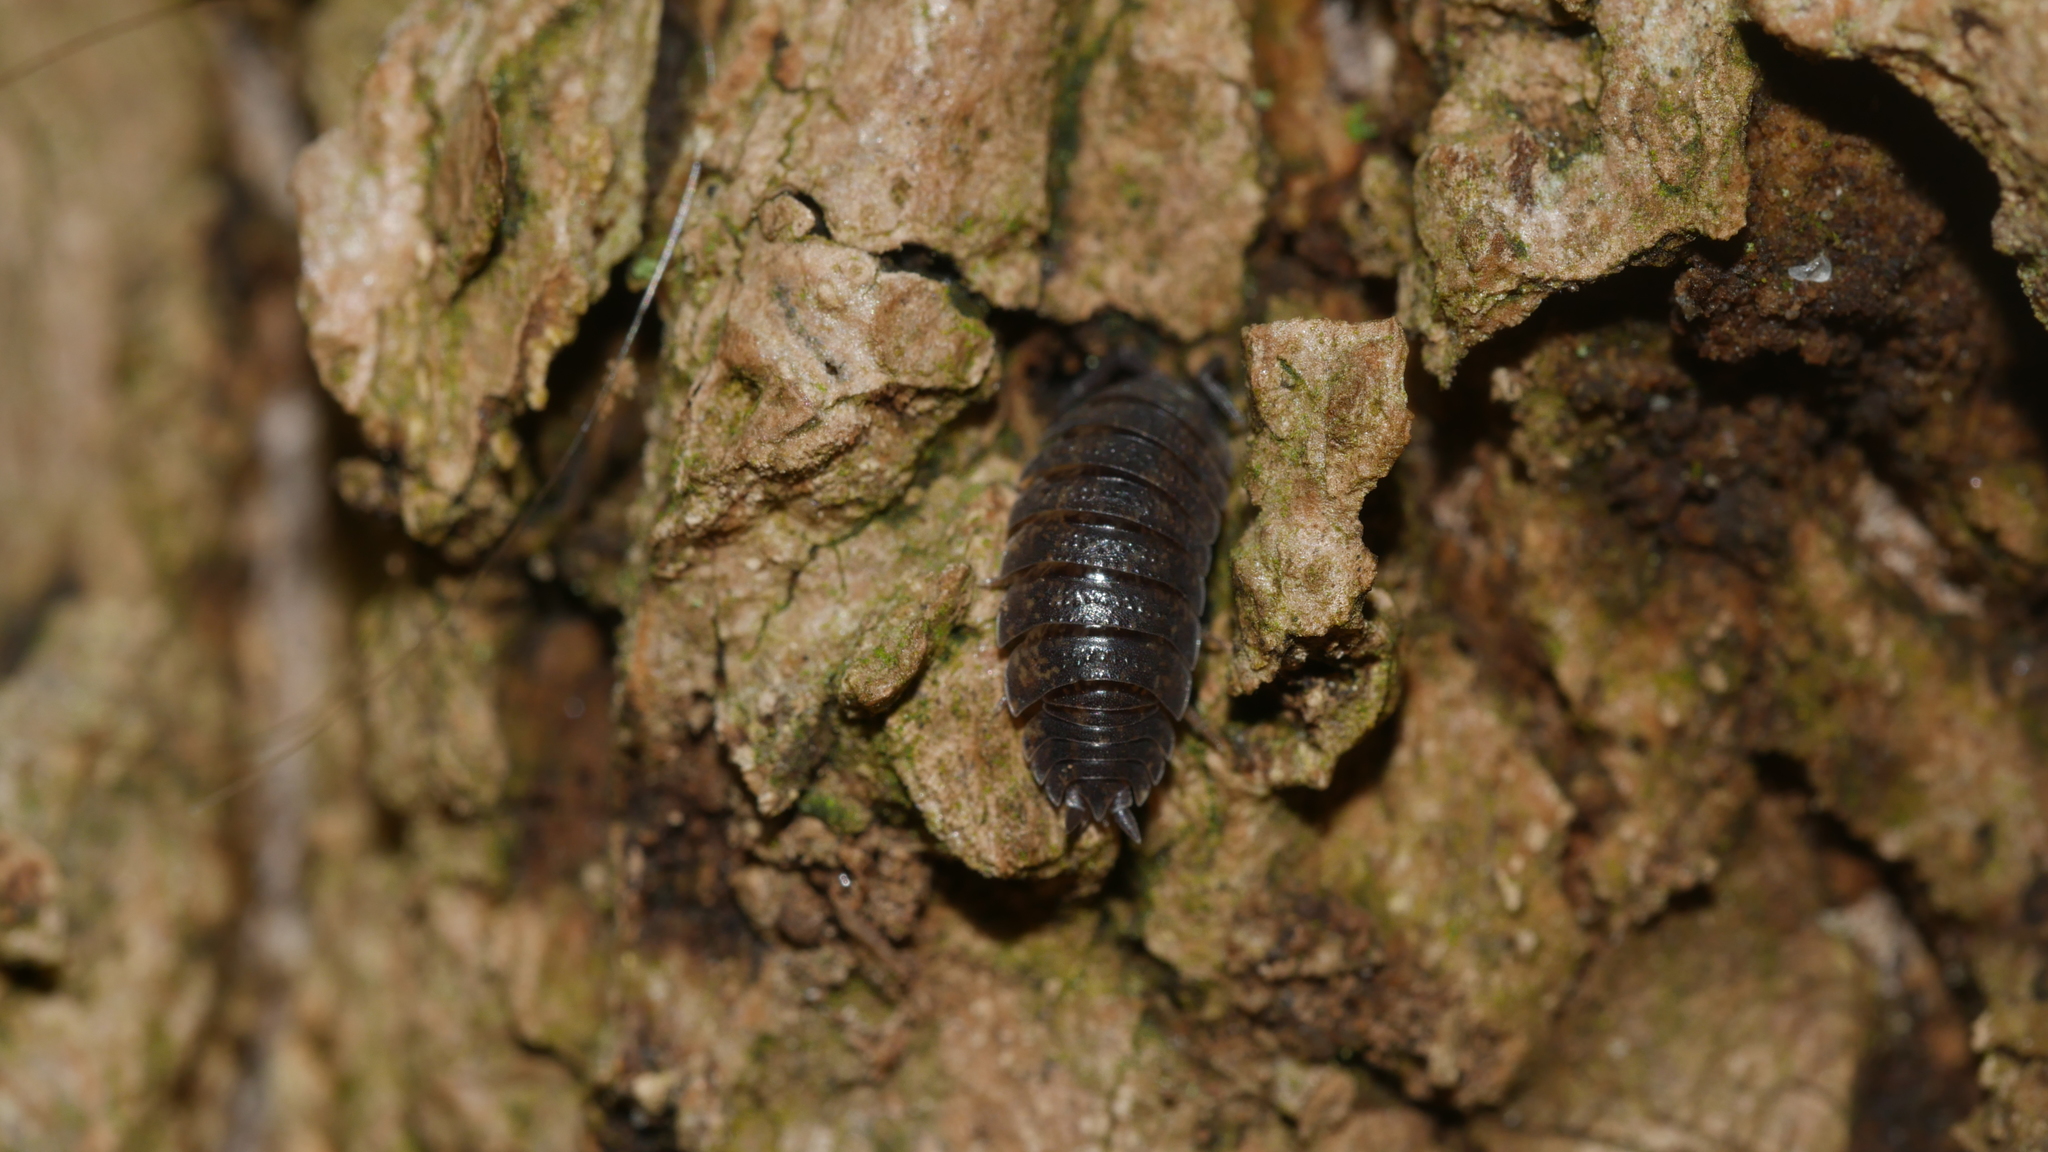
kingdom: Animalia
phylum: Arthropoda
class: Malacostraca
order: Isopoda
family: Porcellionidae
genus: Porcellio
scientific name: Porcellio scaber
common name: Common rough woodlouse
